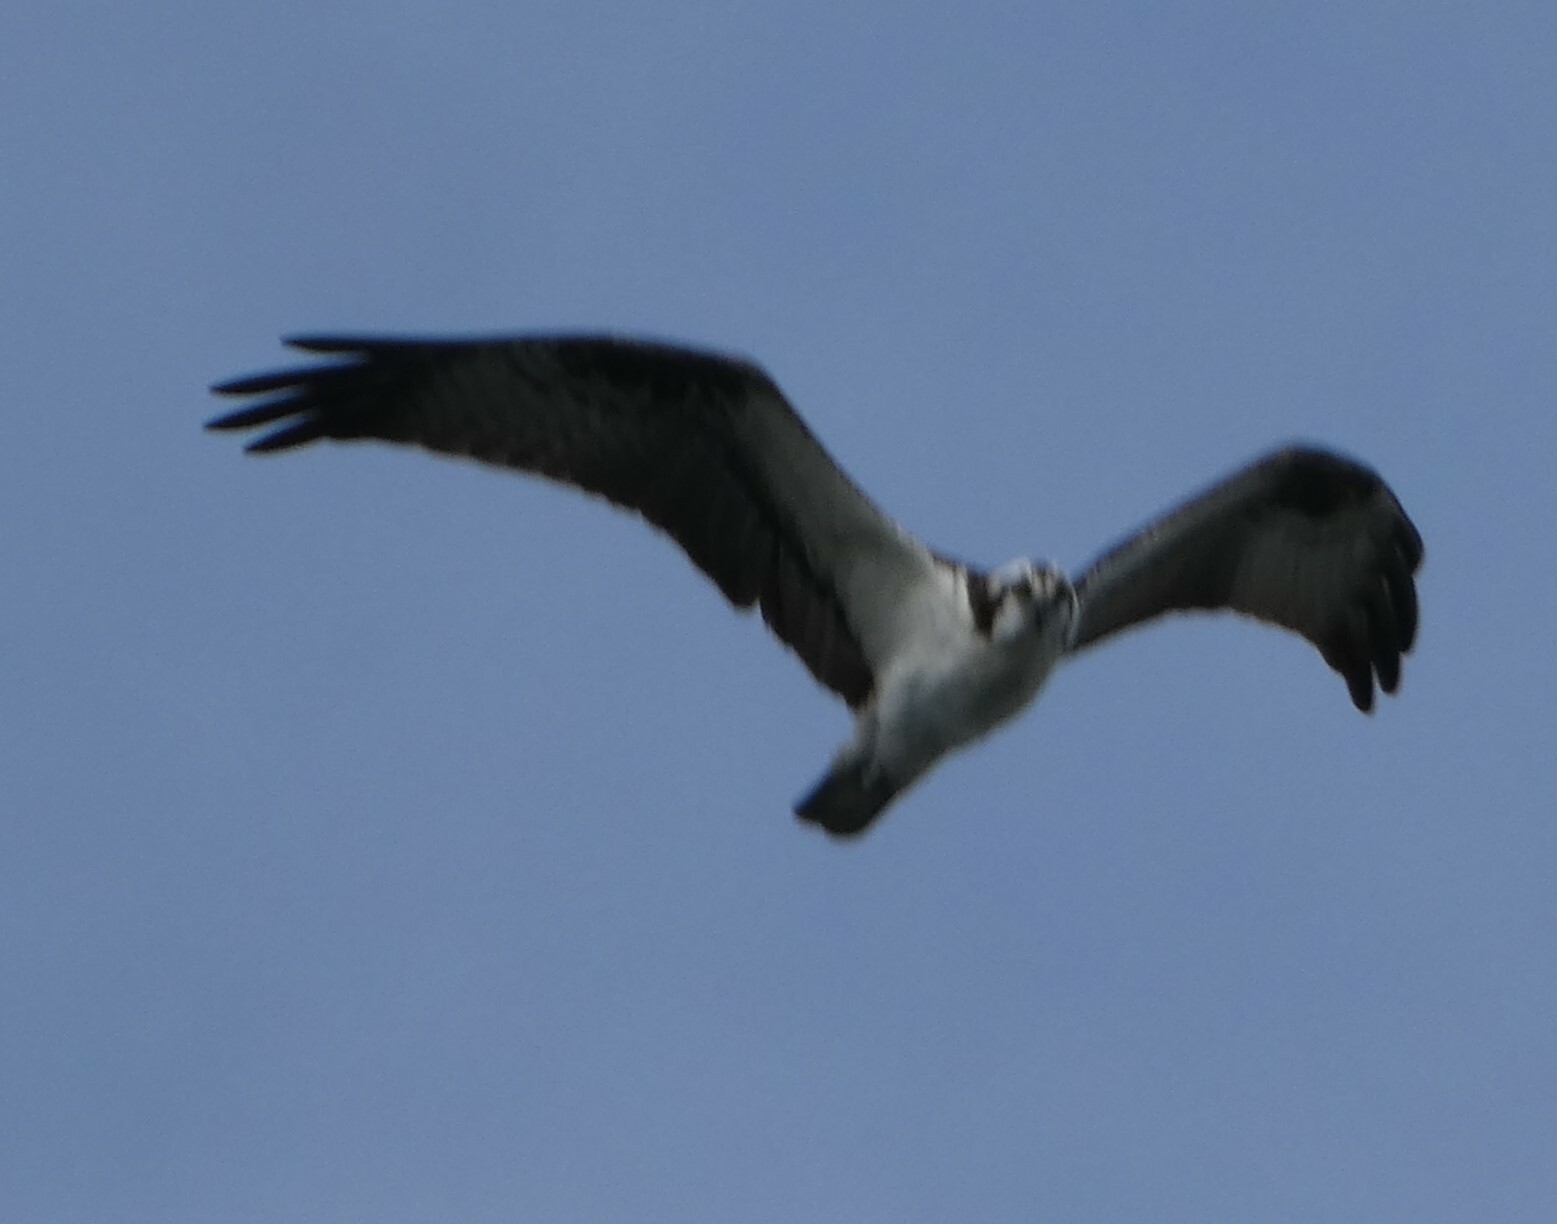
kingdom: Animalia
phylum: Chordata
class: Aves
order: Accipitriformes
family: Pandionidae
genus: Pandion
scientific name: Pandion haliaetus
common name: Osprey
